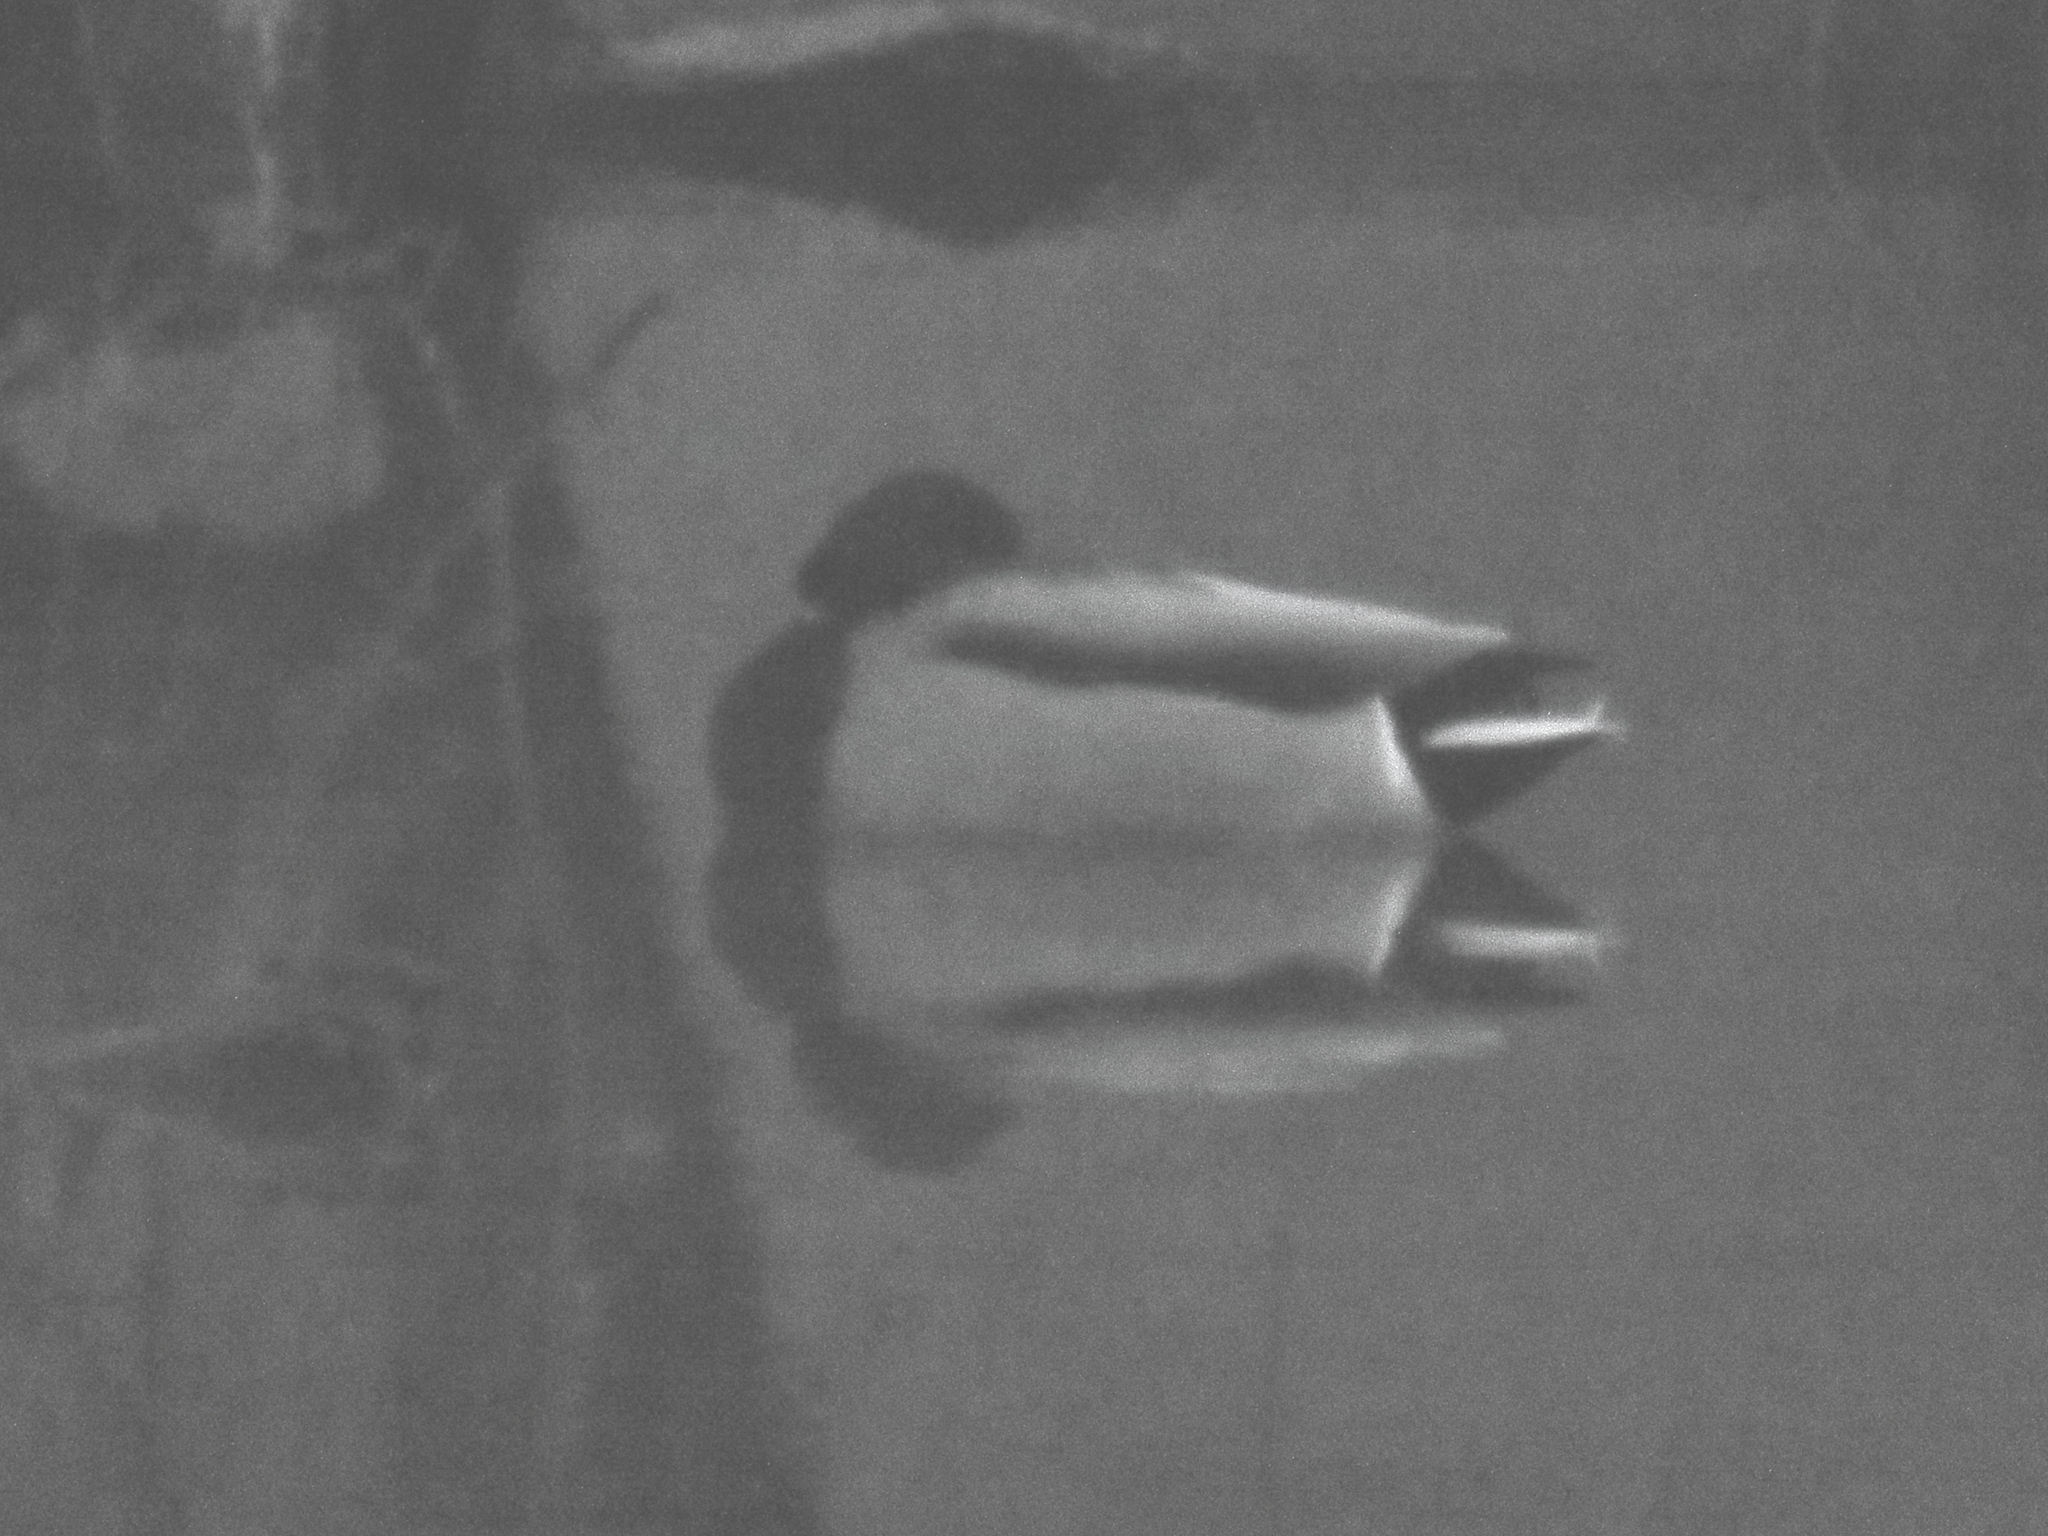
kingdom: Animalia
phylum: Chordata
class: Aves
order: Anseriformes
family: Anatidae
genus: Anas
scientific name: Anas platyrhynchos
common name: Mallard
